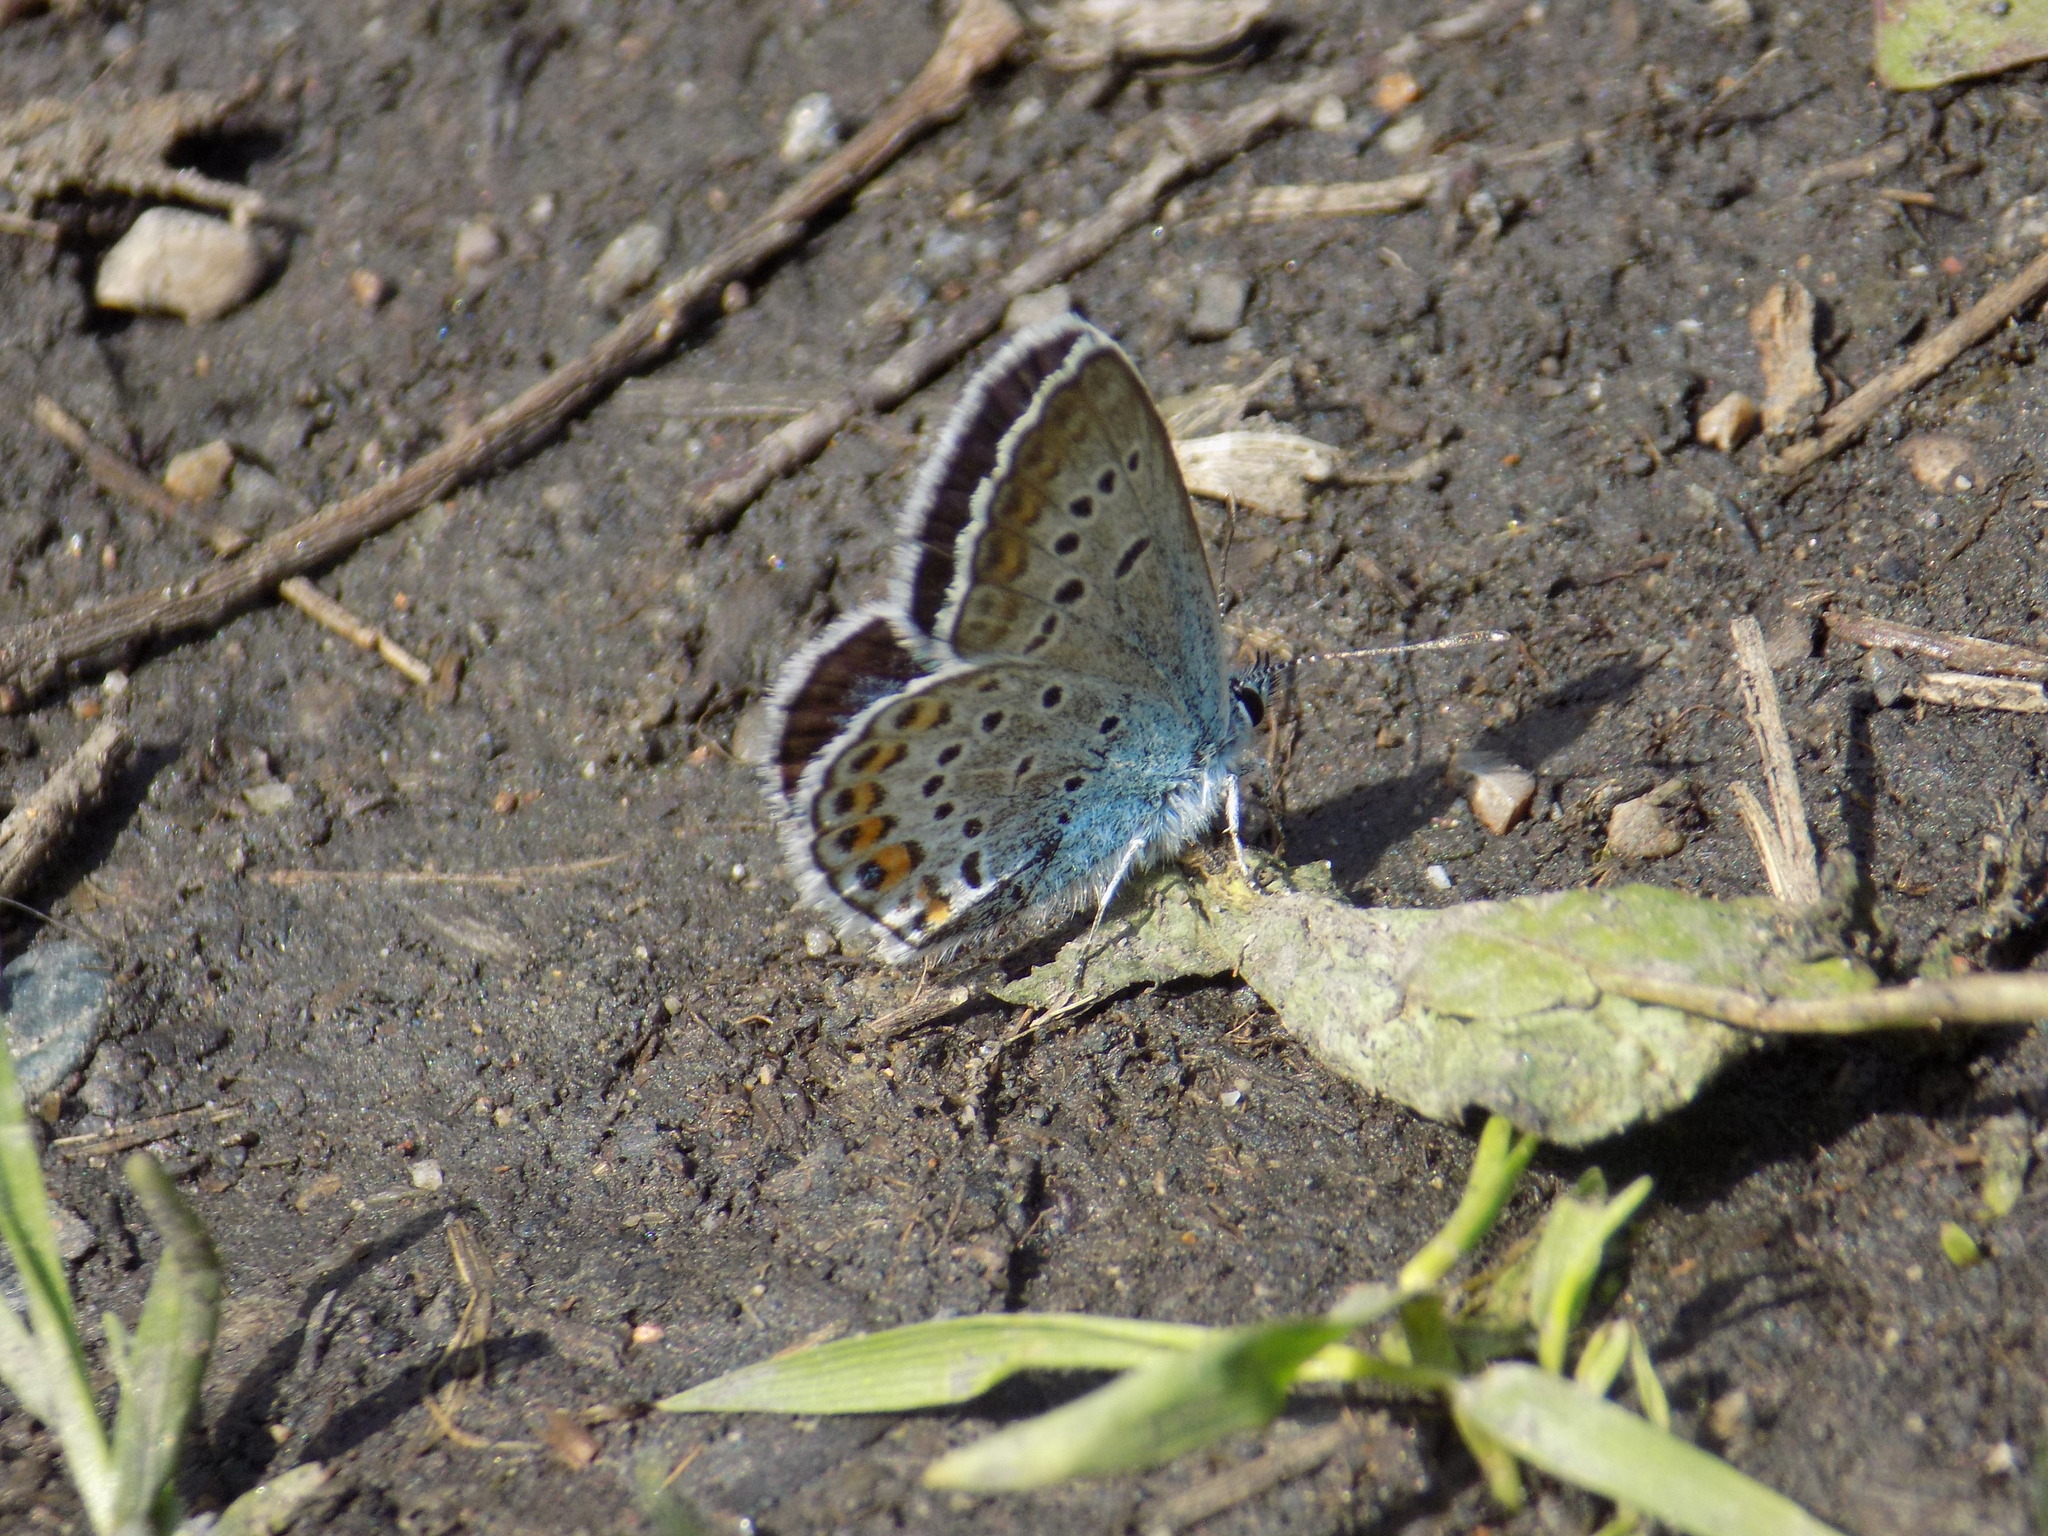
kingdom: Animalia
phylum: Arthropoda
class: Insecta
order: Lepidoptera
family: Lycaenidae
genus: Plebejus
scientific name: Plebejus argus
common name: Silver-studded blue
